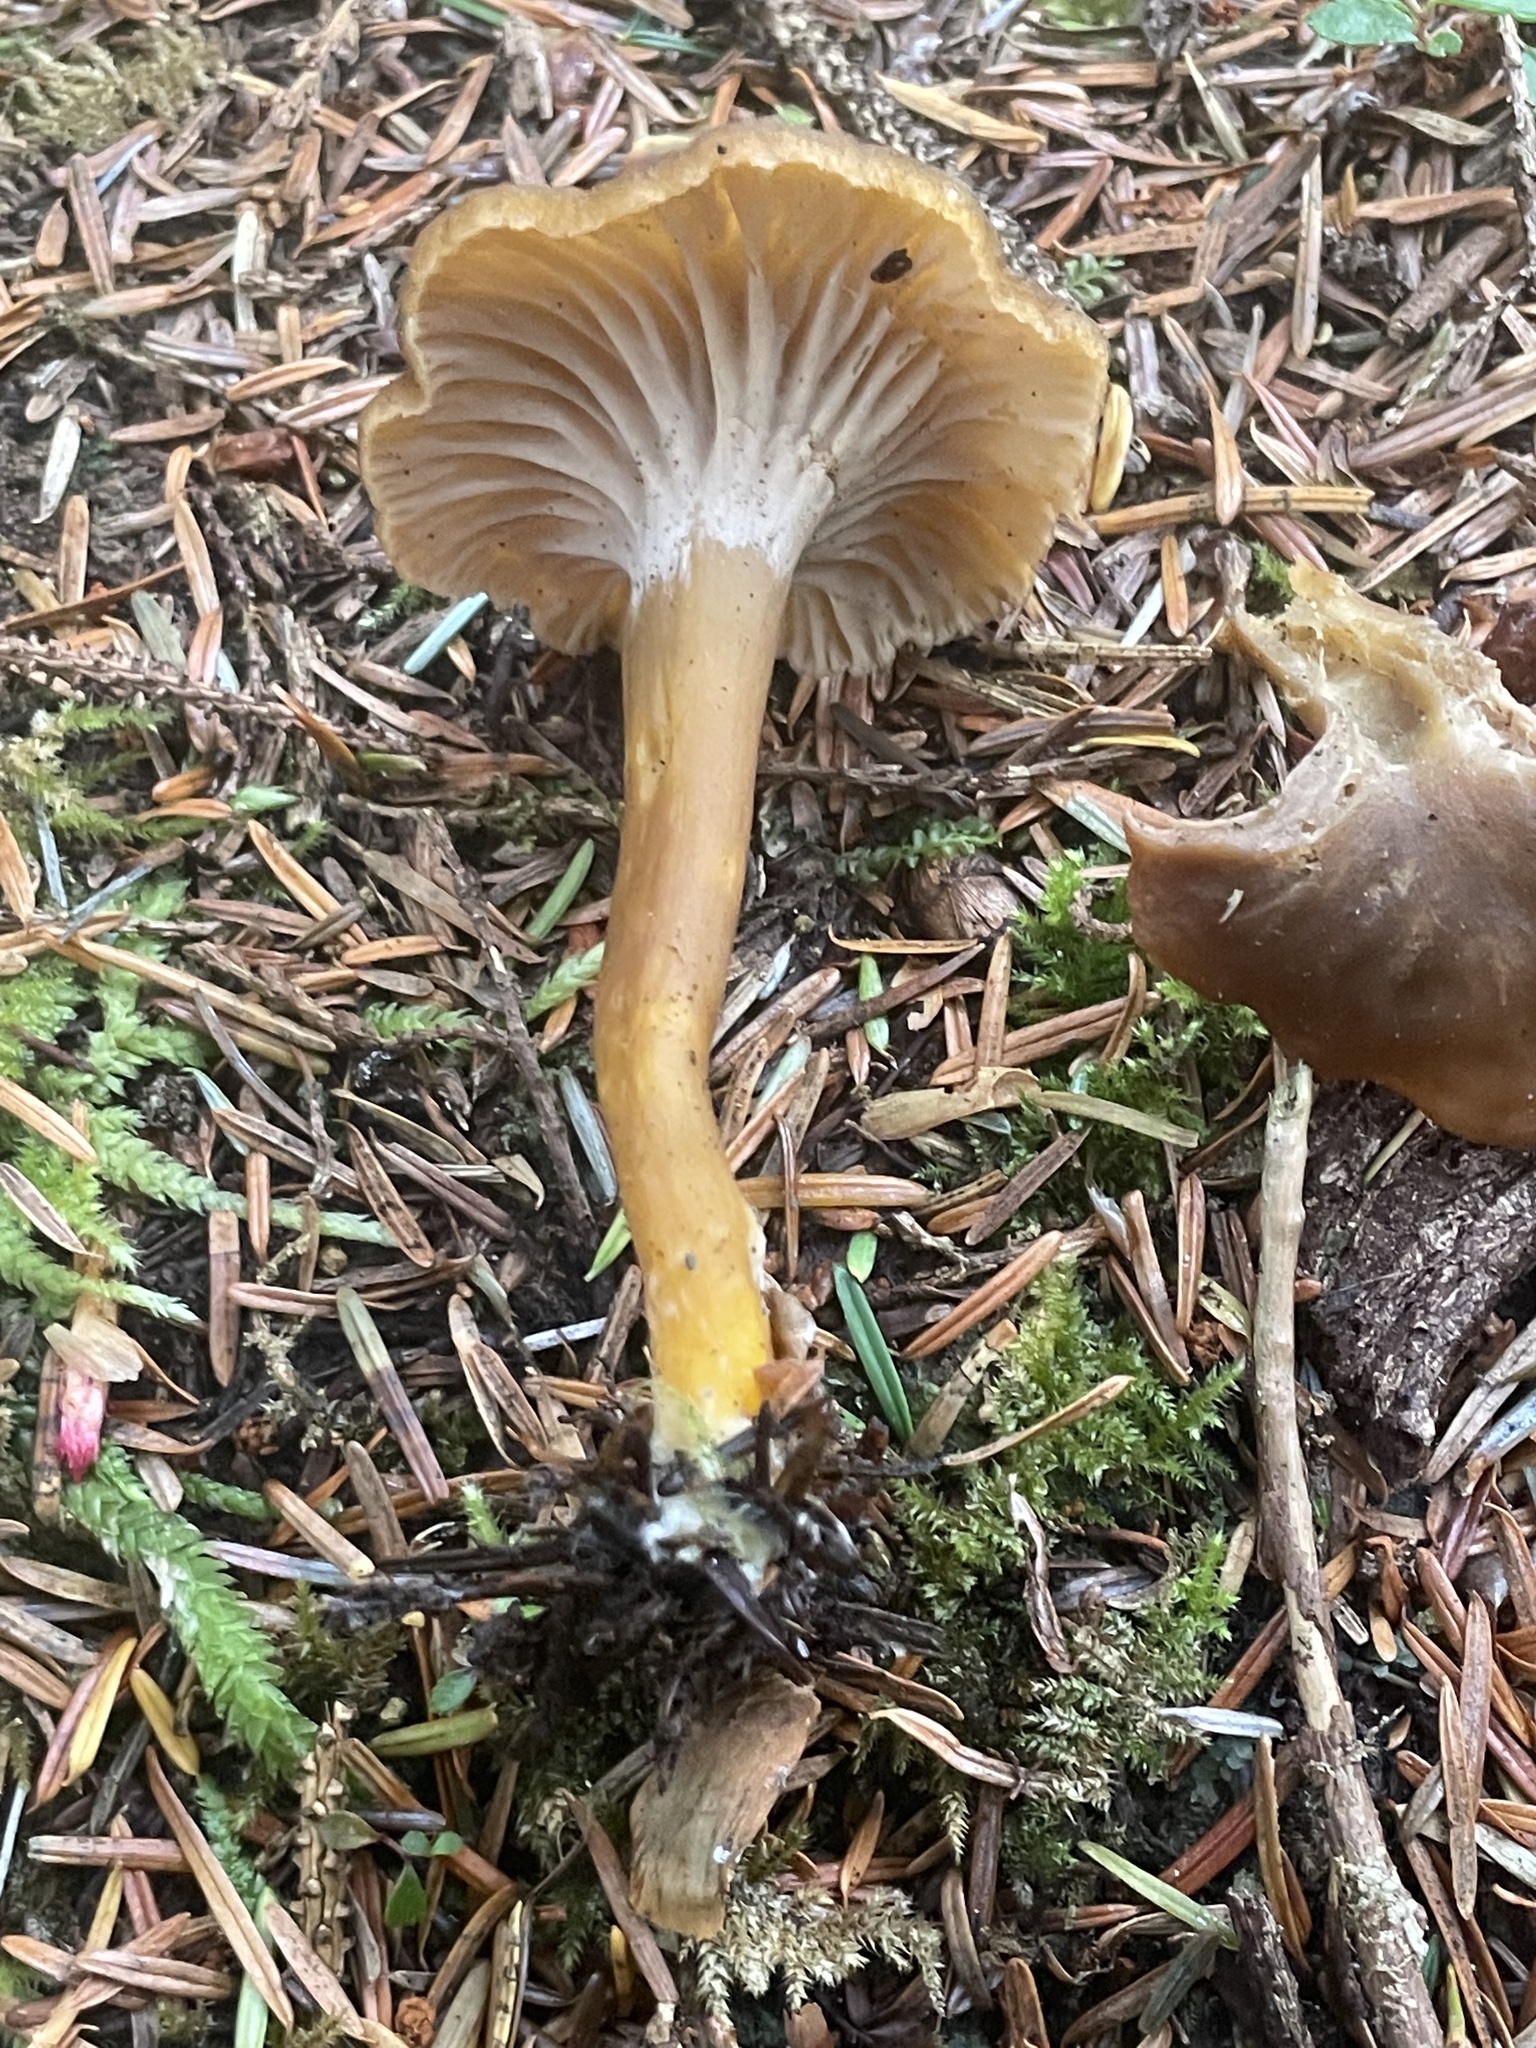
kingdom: Fungi
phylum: Basidiomycota
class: Agaricomycetes
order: Cantharellales
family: Hydnaceae
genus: Craterellus
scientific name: Craterellus tubaeformis
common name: Yellowfoot
